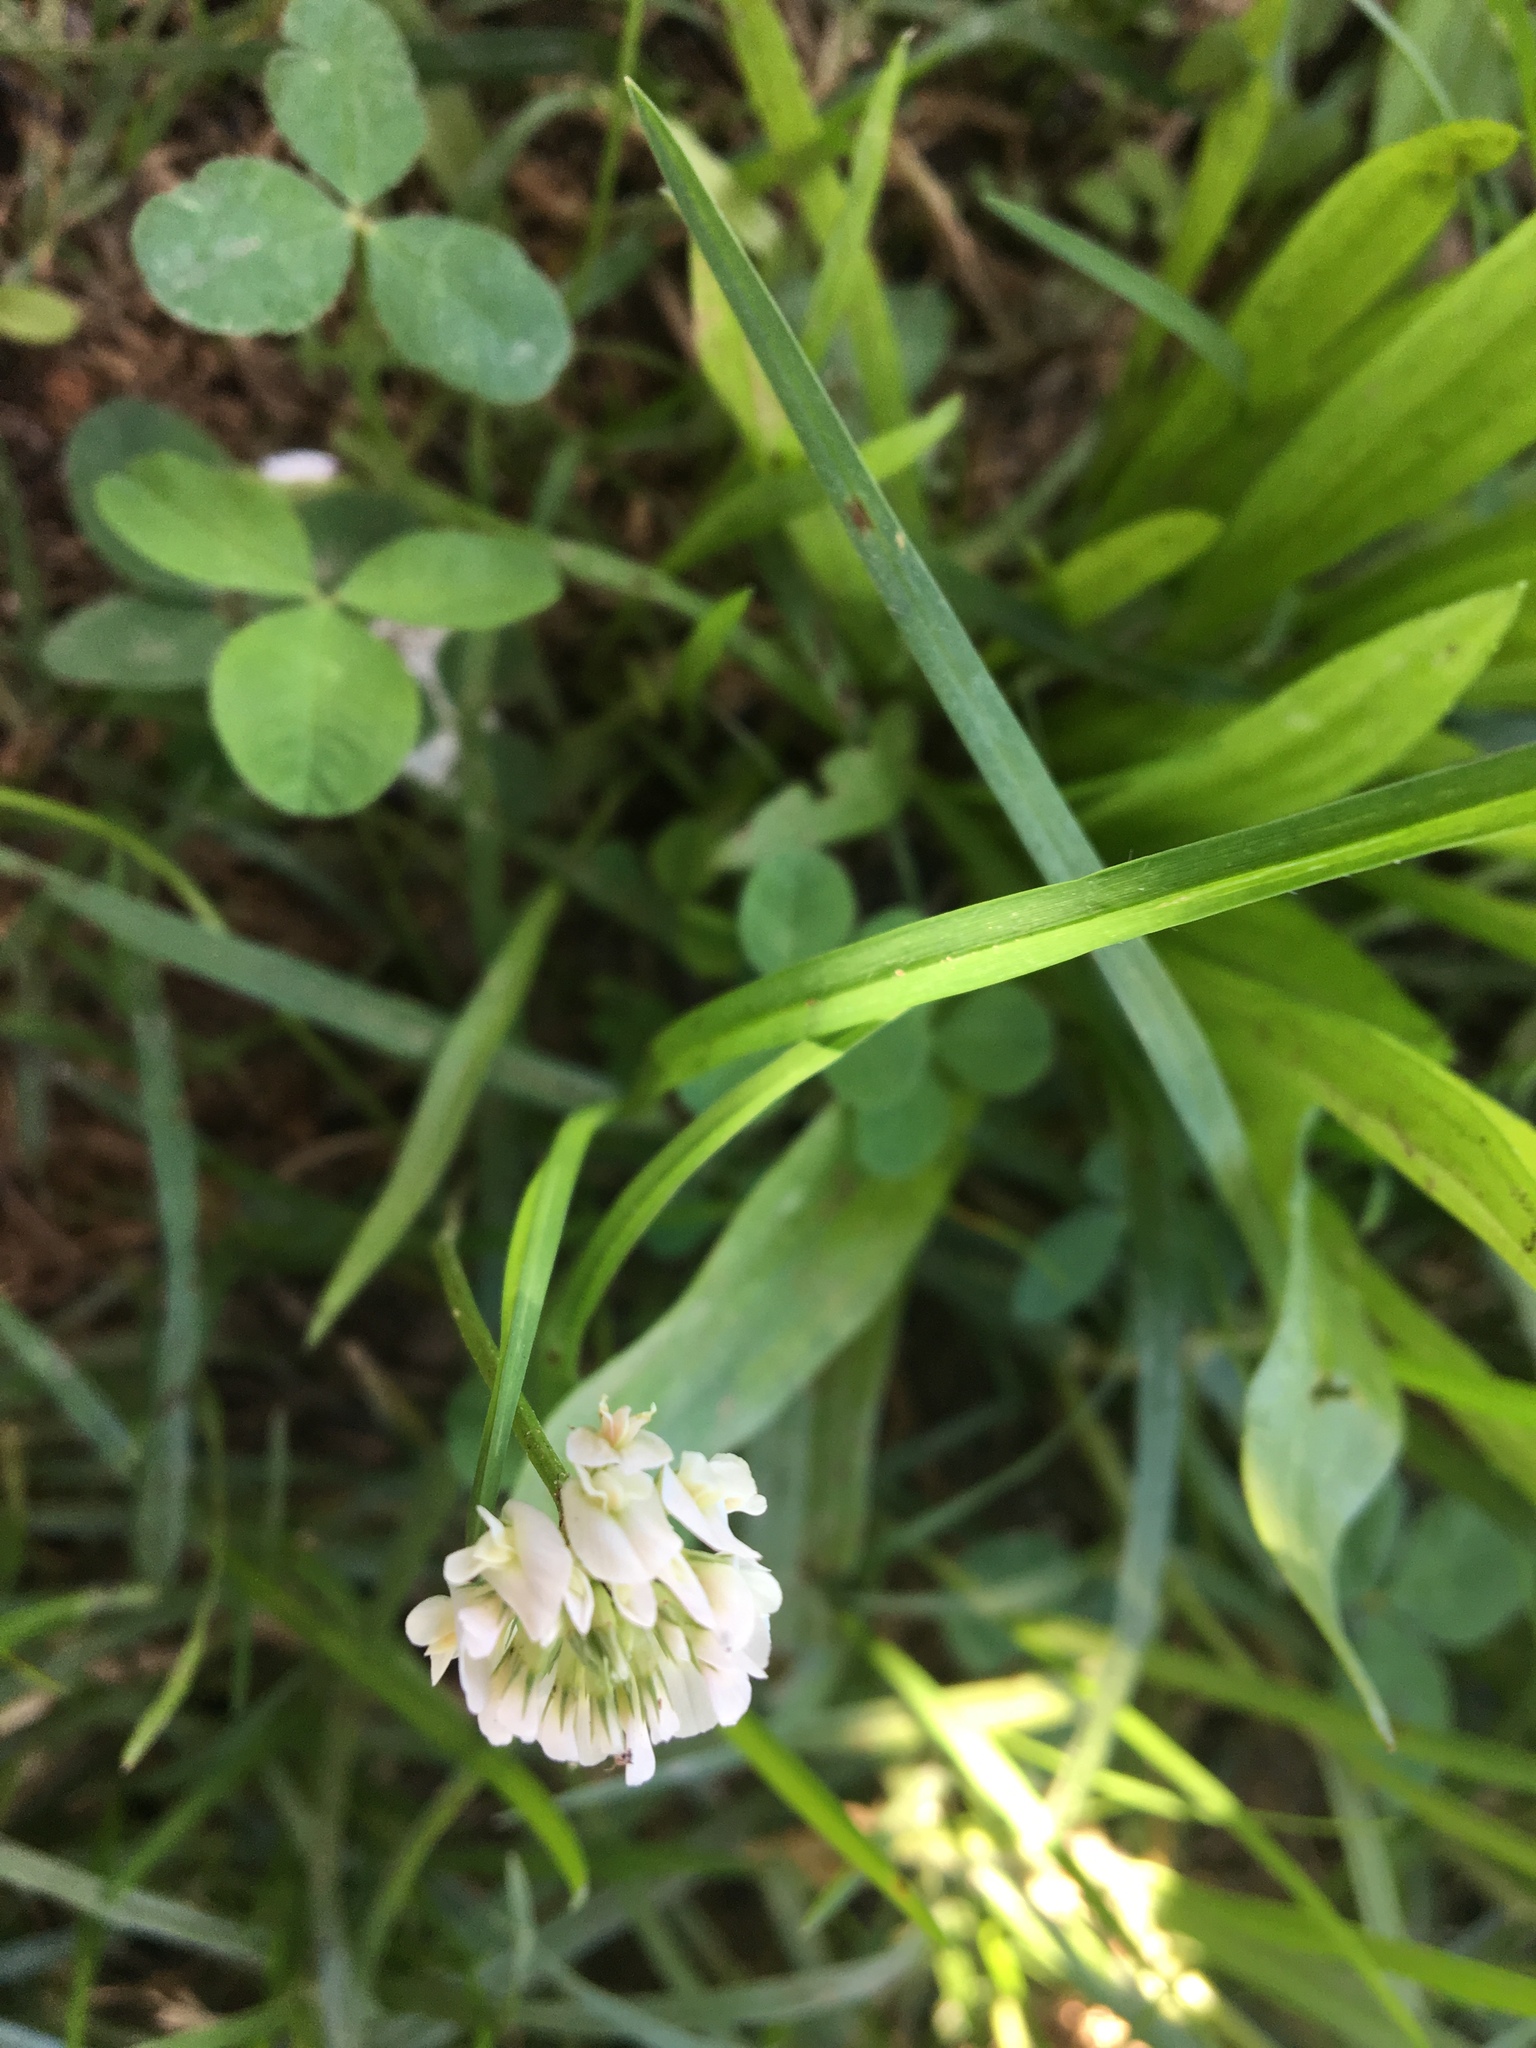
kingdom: Plantae
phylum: Tracheophyta
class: Magnoliopsida
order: Fabales
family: Fabaceae
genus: Trifolium
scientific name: Trifolium repens
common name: White clover
